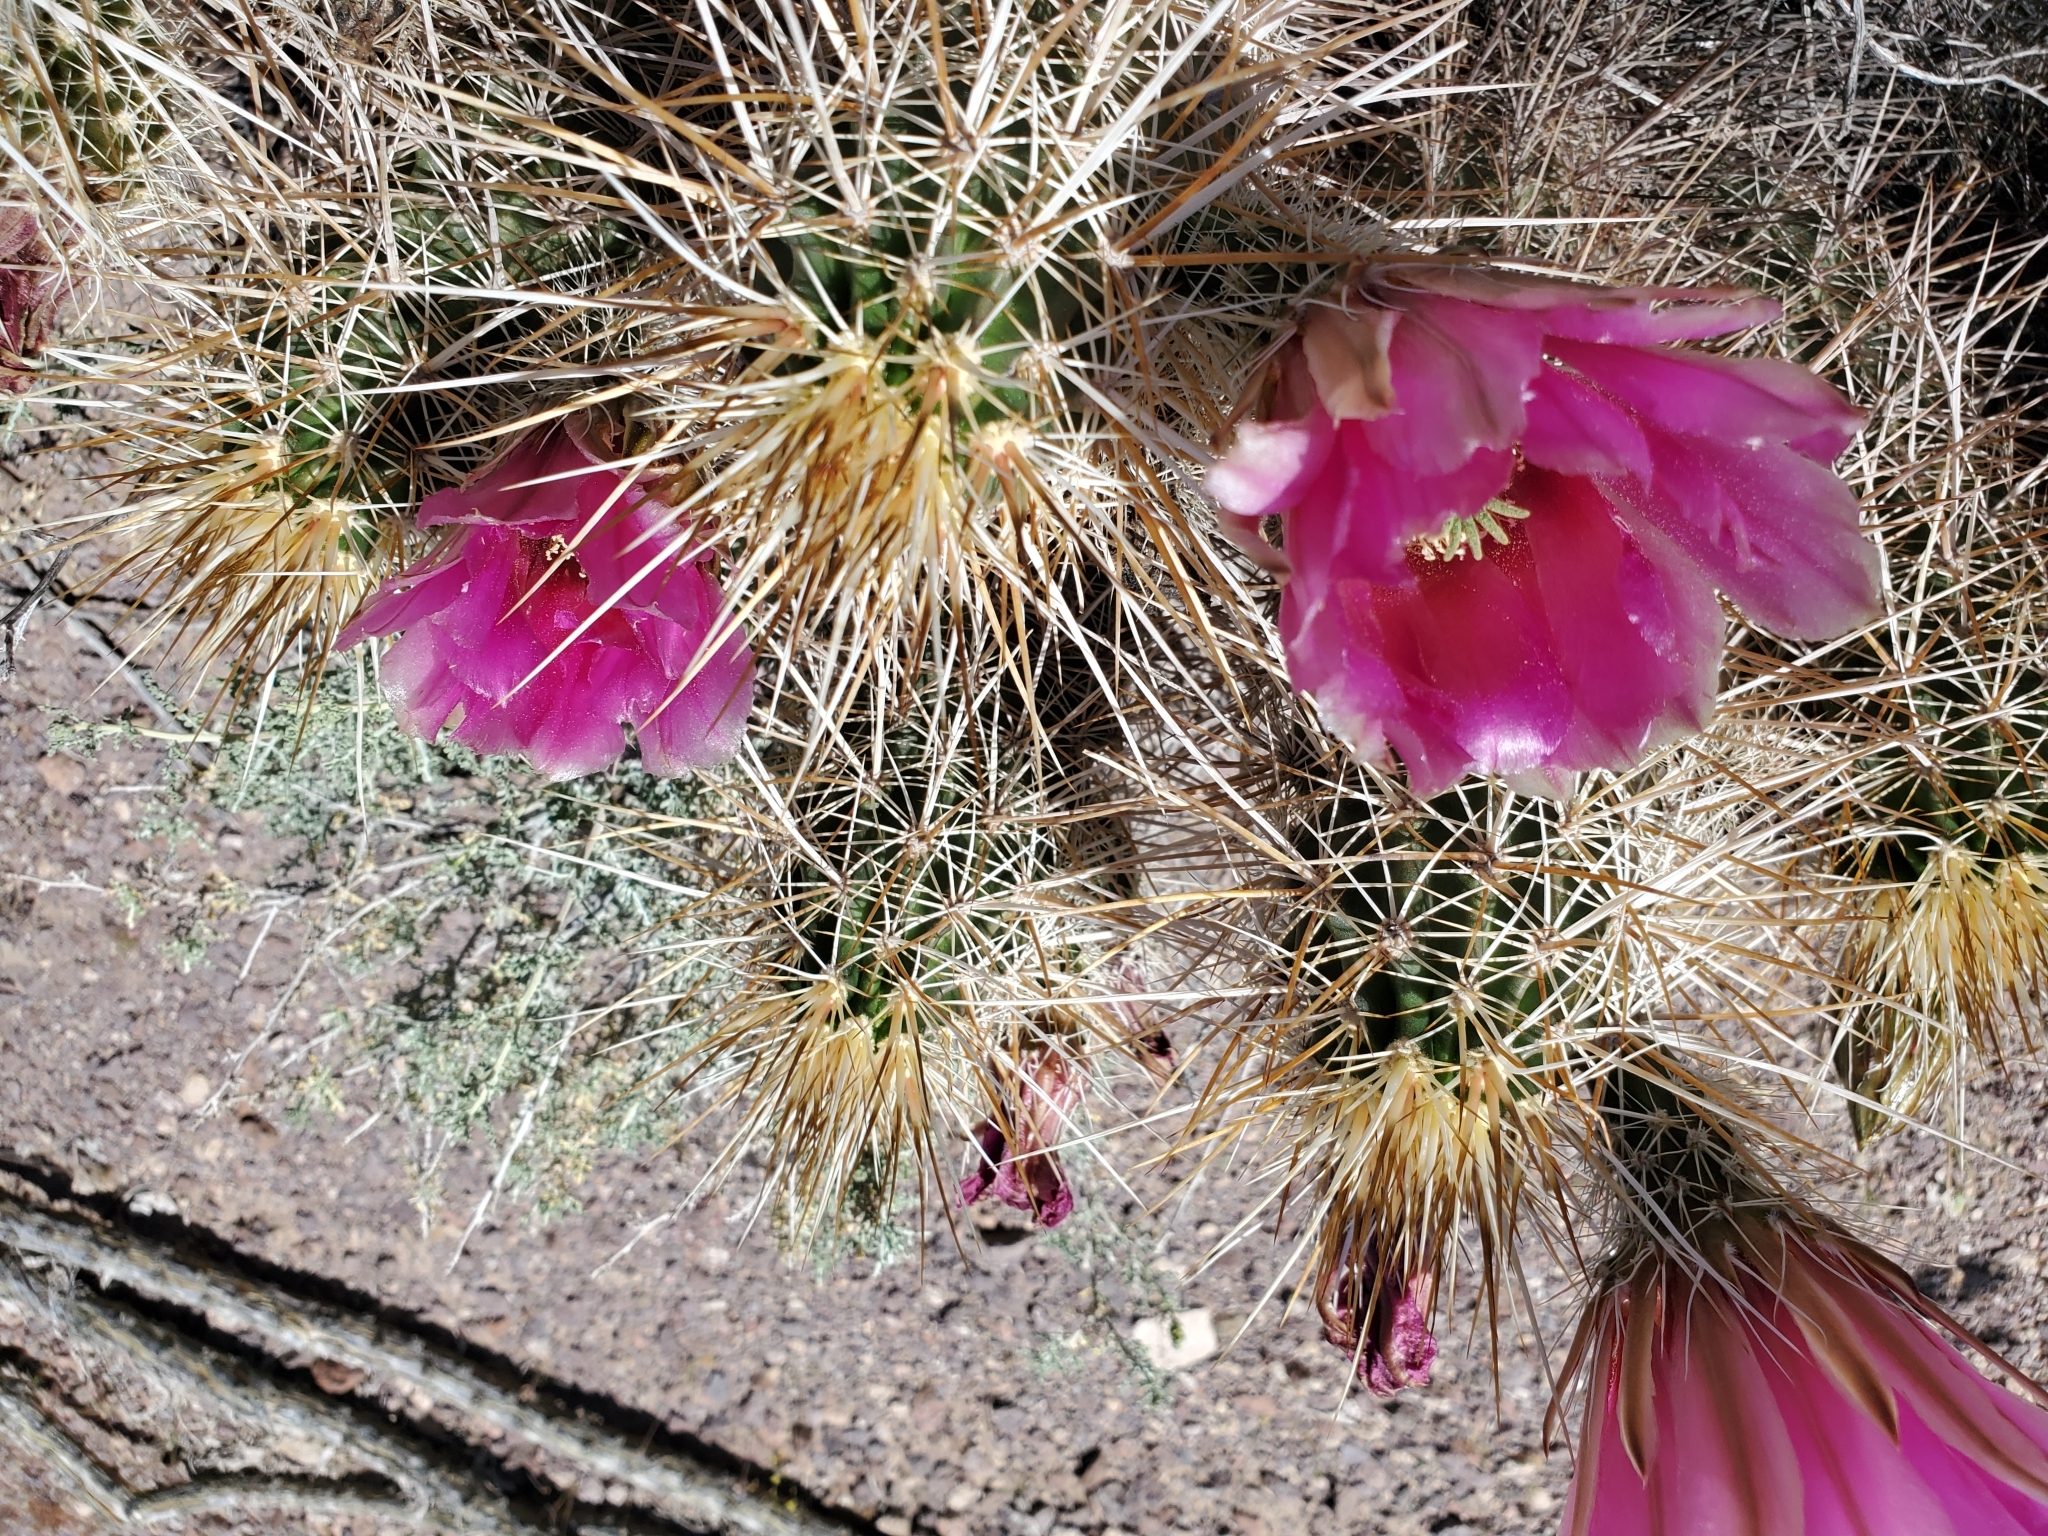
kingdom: Plantae
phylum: Tracheophyta
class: Magnoliopsida
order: Caryophyllales
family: Cactaceae
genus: Echinocereus
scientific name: Echinocereus engelmannii
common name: Engelmann's hedgehog cactus
